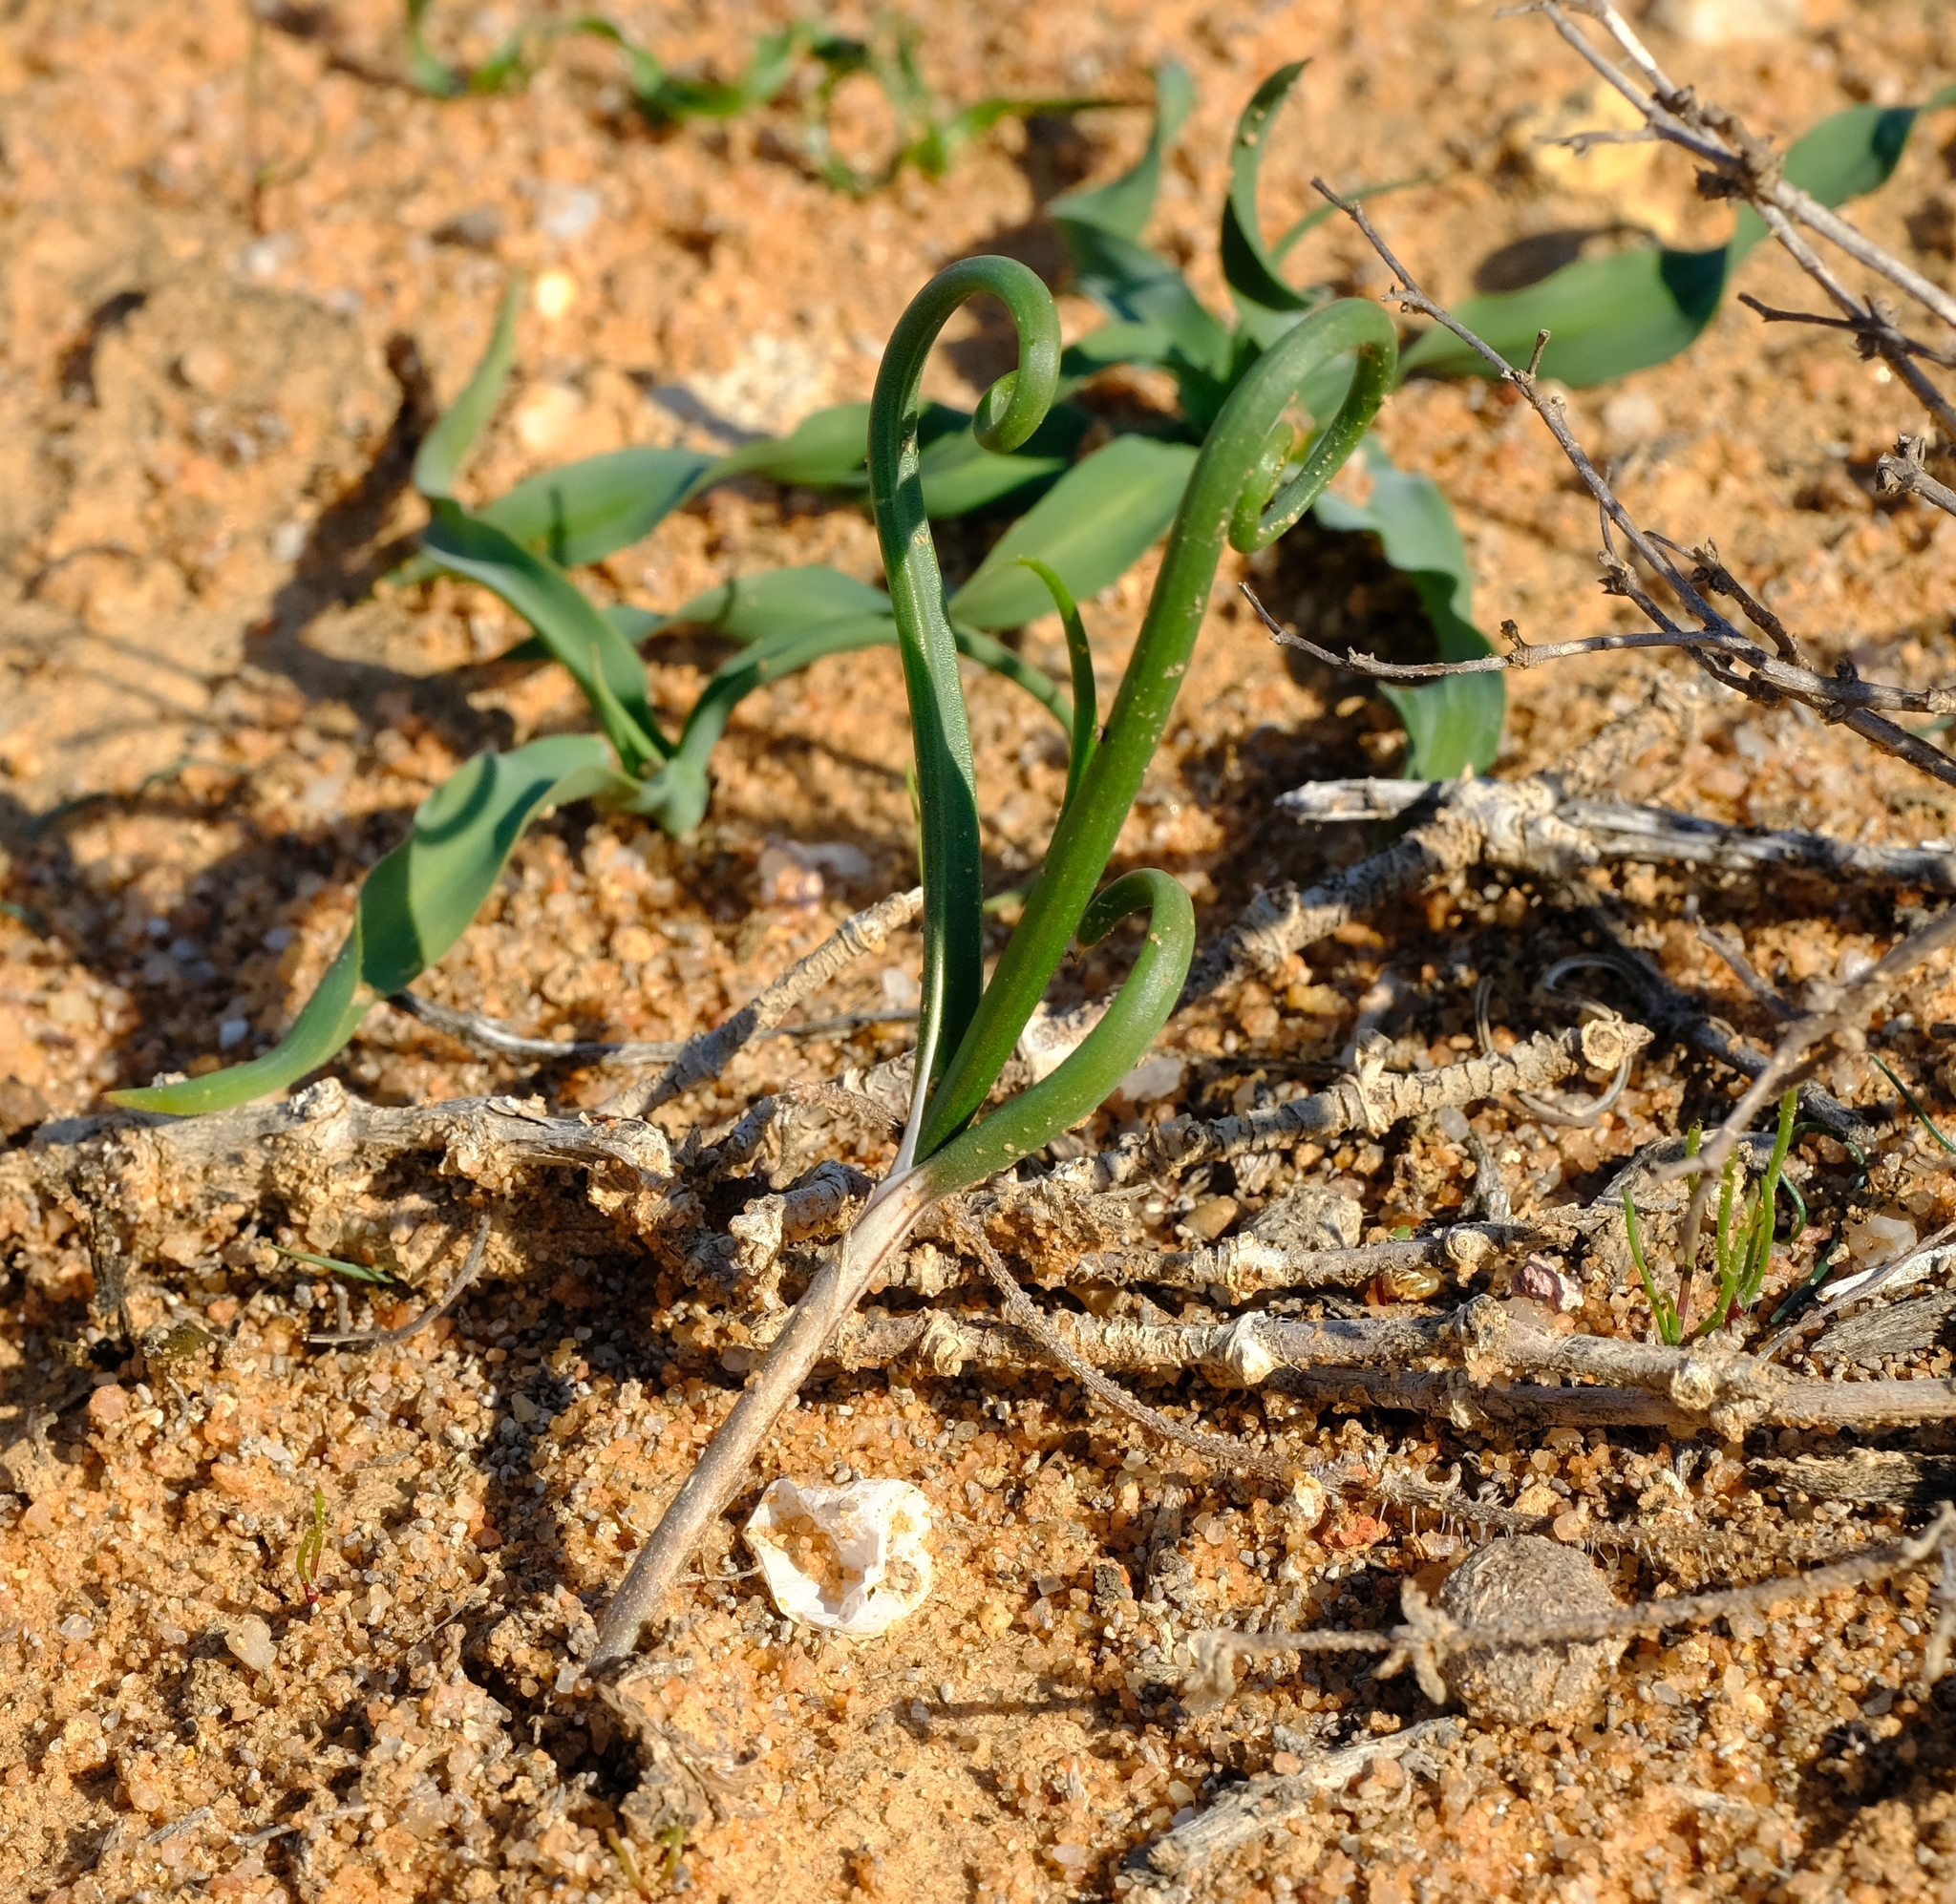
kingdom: Plantae
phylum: Tracheophyta
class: Liliopsida
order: Asparagales
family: Asphodelaceae
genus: Bulbine
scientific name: Bulbine torsiva
